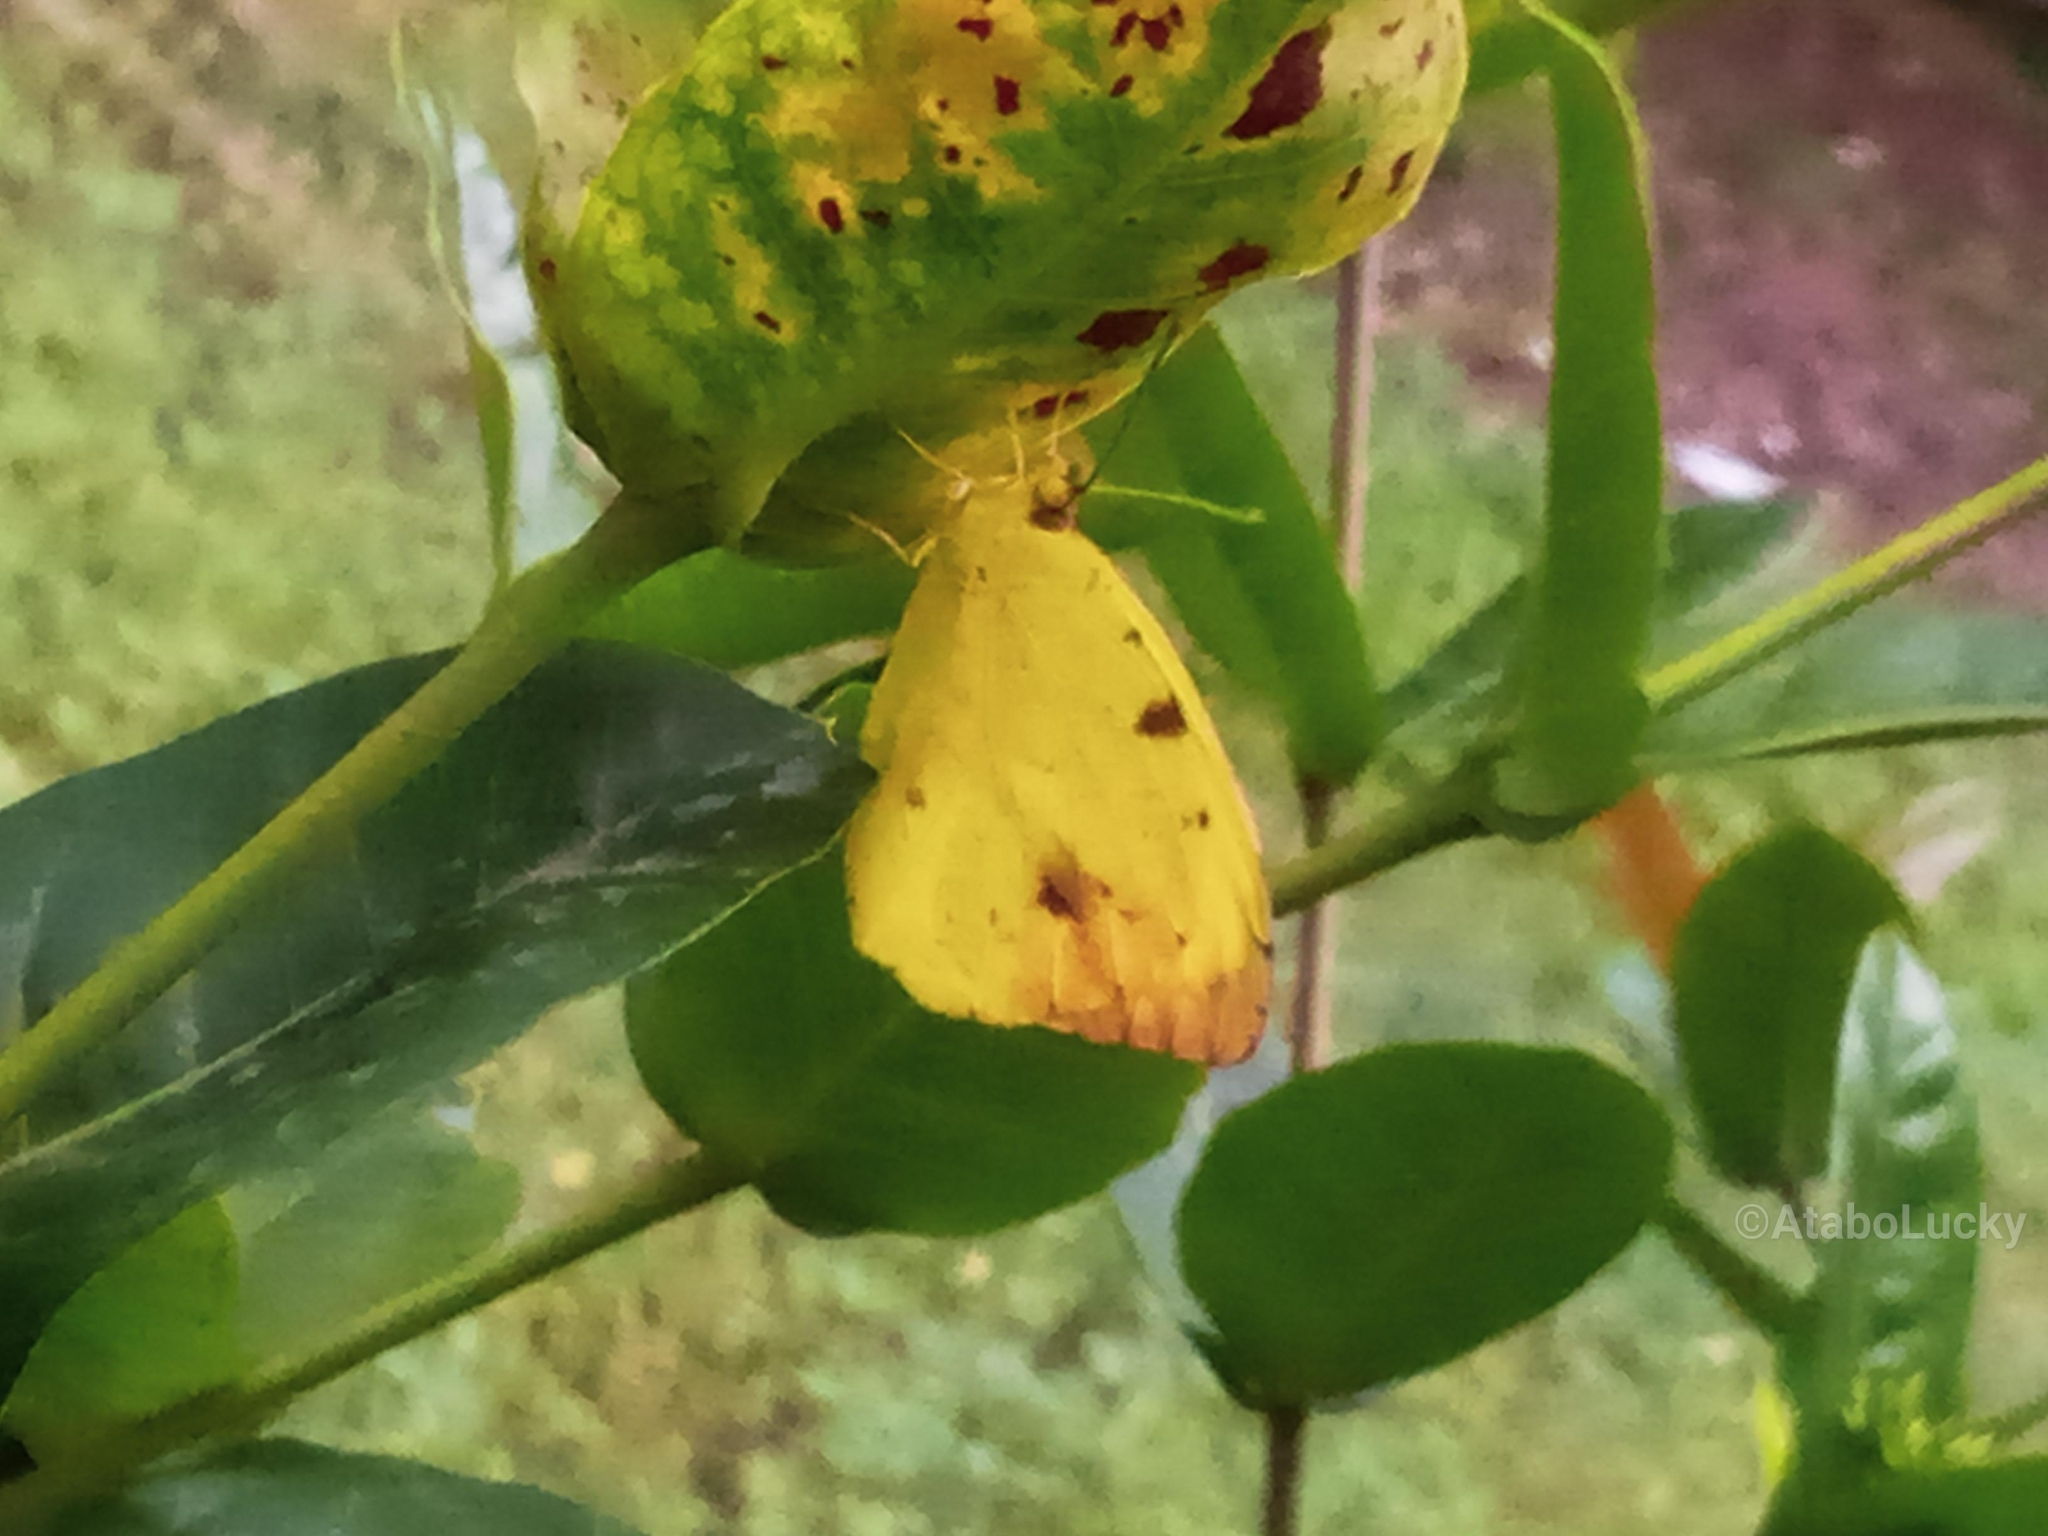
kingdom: Animalia
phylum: Arthropoda
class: Insecta
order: Lepidoptera
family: Pieridae
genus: Eronia
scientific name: Eronia leda
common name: Autumn leaf vagrant
